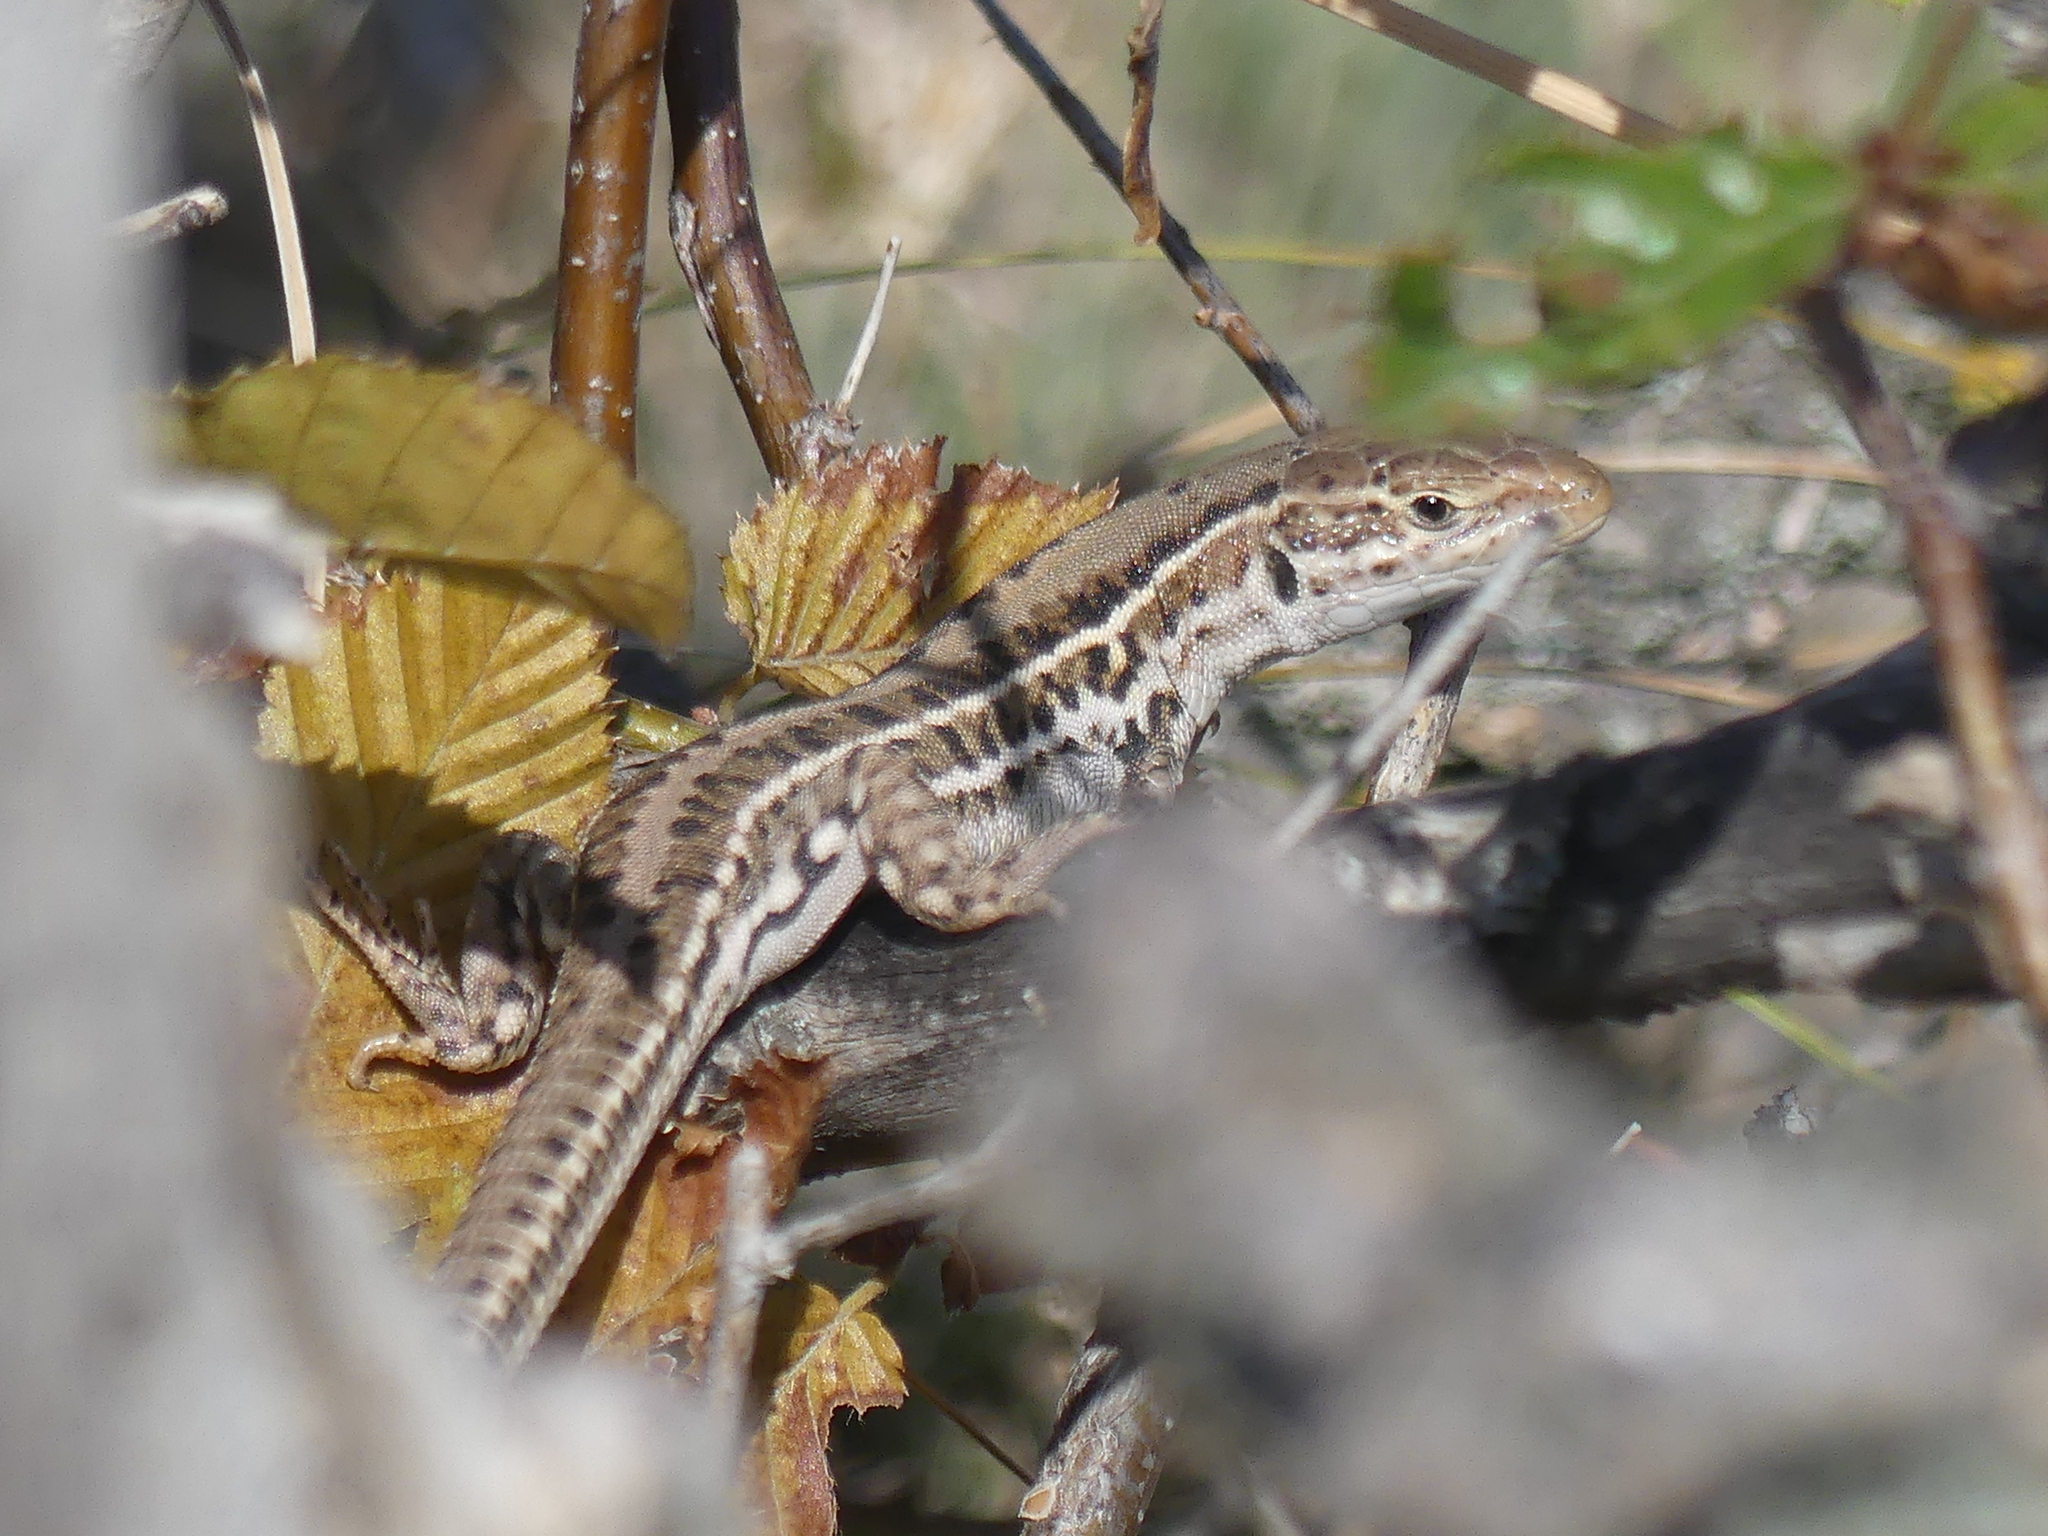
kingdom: Animalia
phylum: Chordata
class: Squamata
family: Lacertidae
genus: Podarcis
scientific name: Podarcis tauricus
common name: Balkan wall lizard
